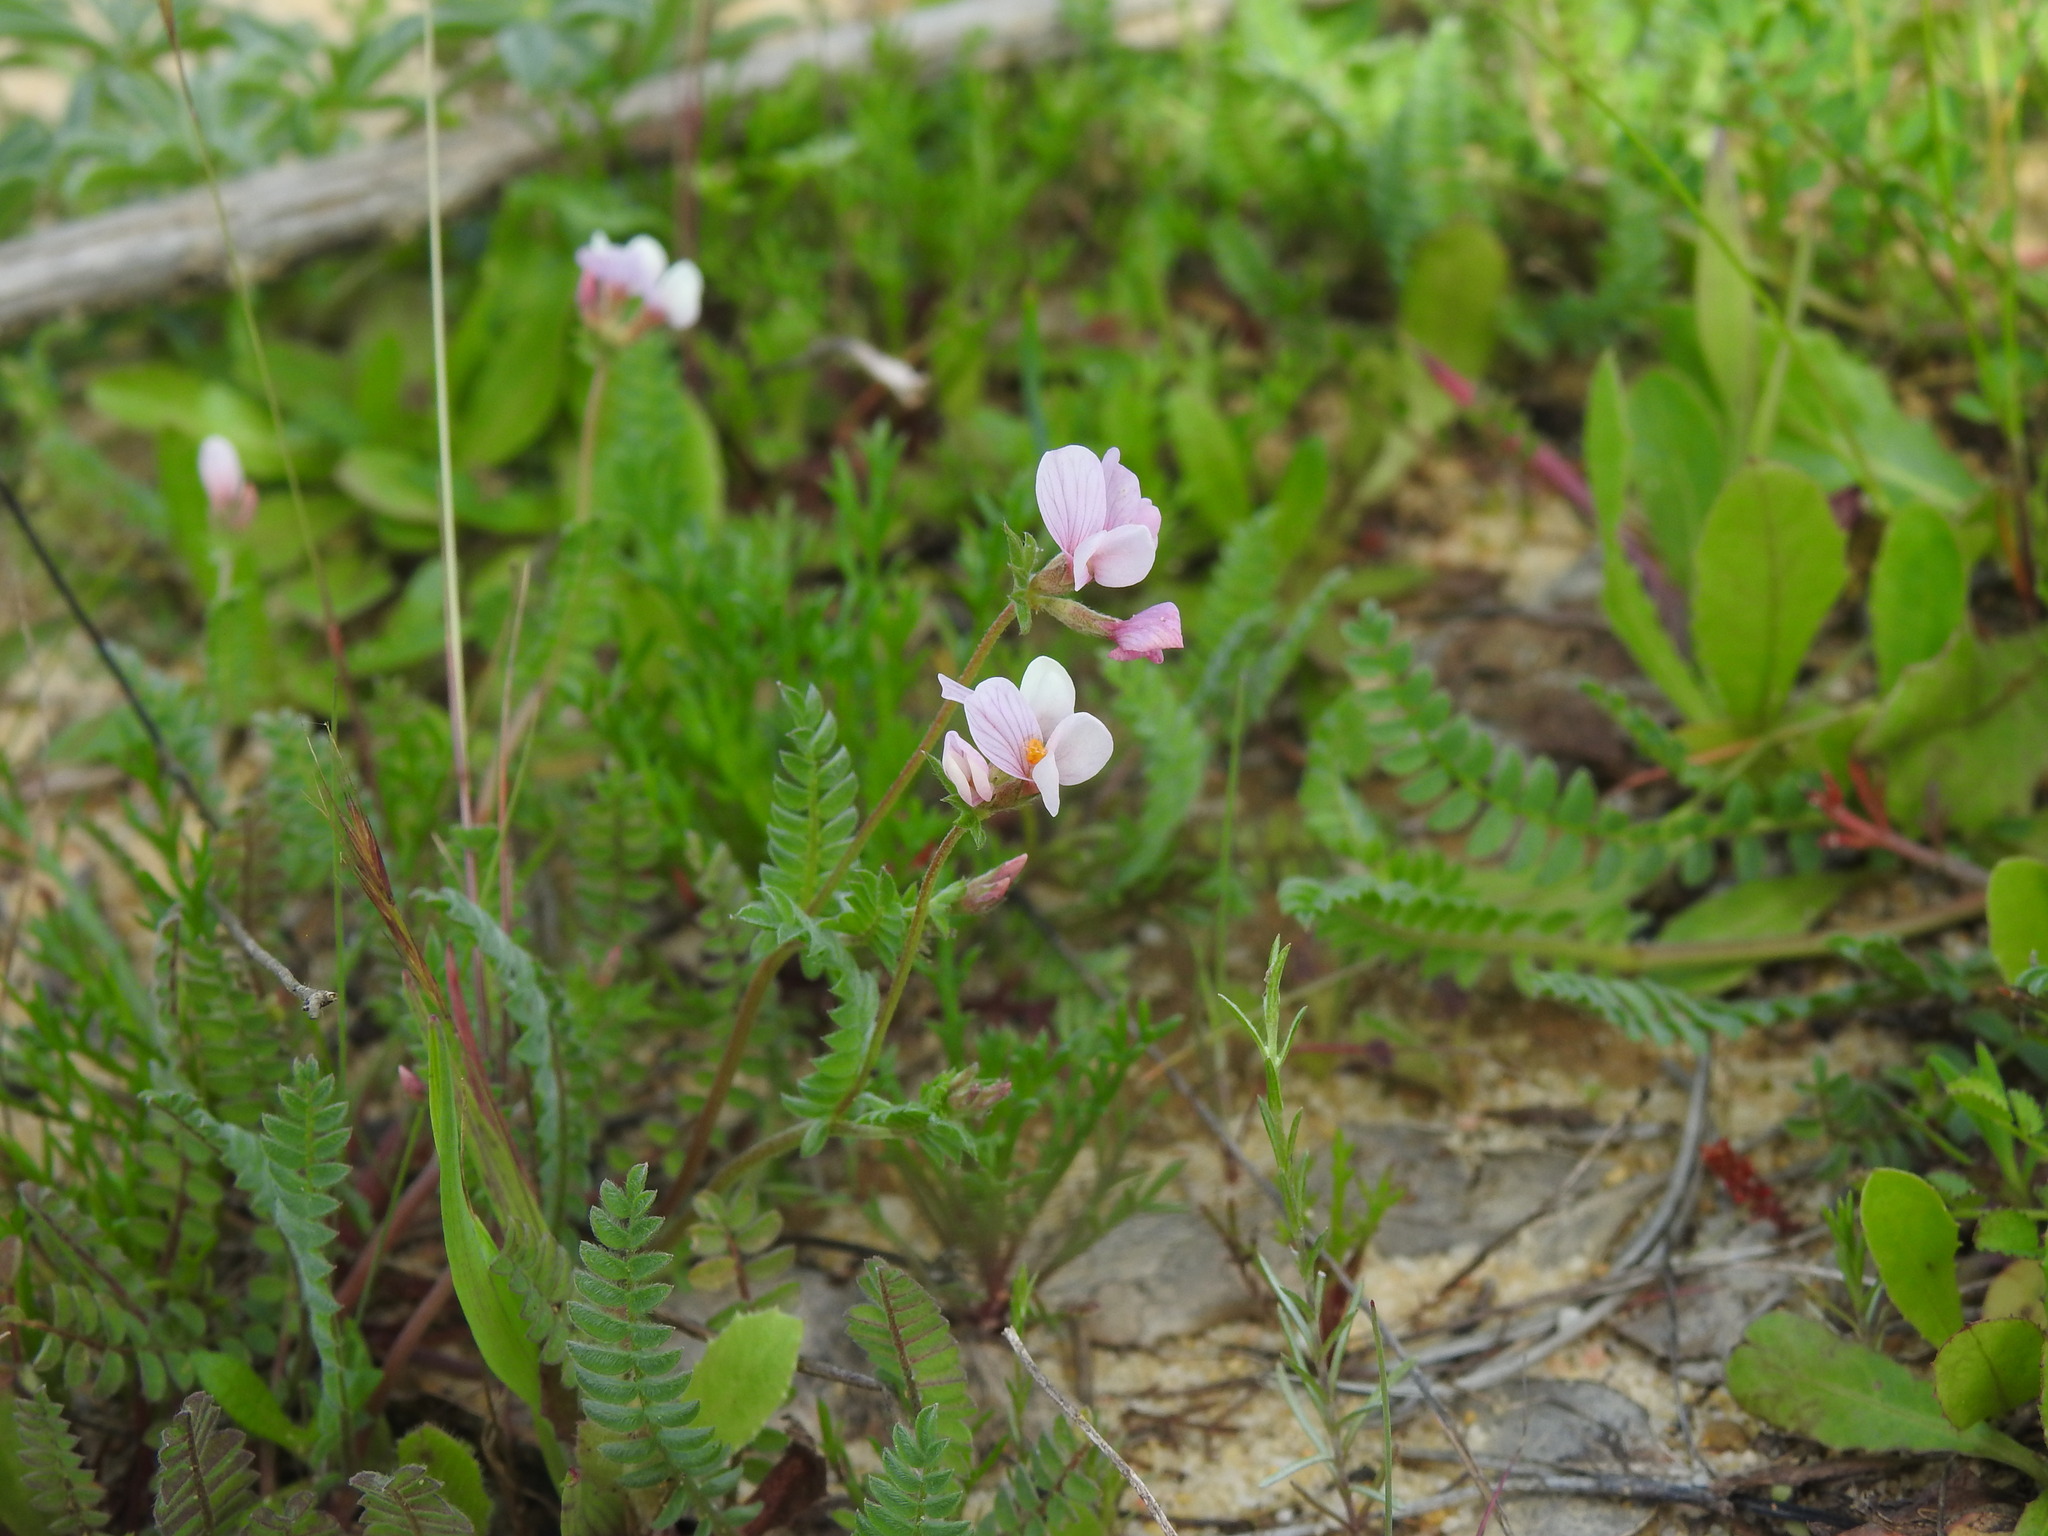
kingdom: Plantae
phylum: Tracheophyta
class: Magnoliopsida
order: Fabales
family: Fabaceae
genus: Ornithopus
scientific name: Ornithopus sativus
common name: Serradella
